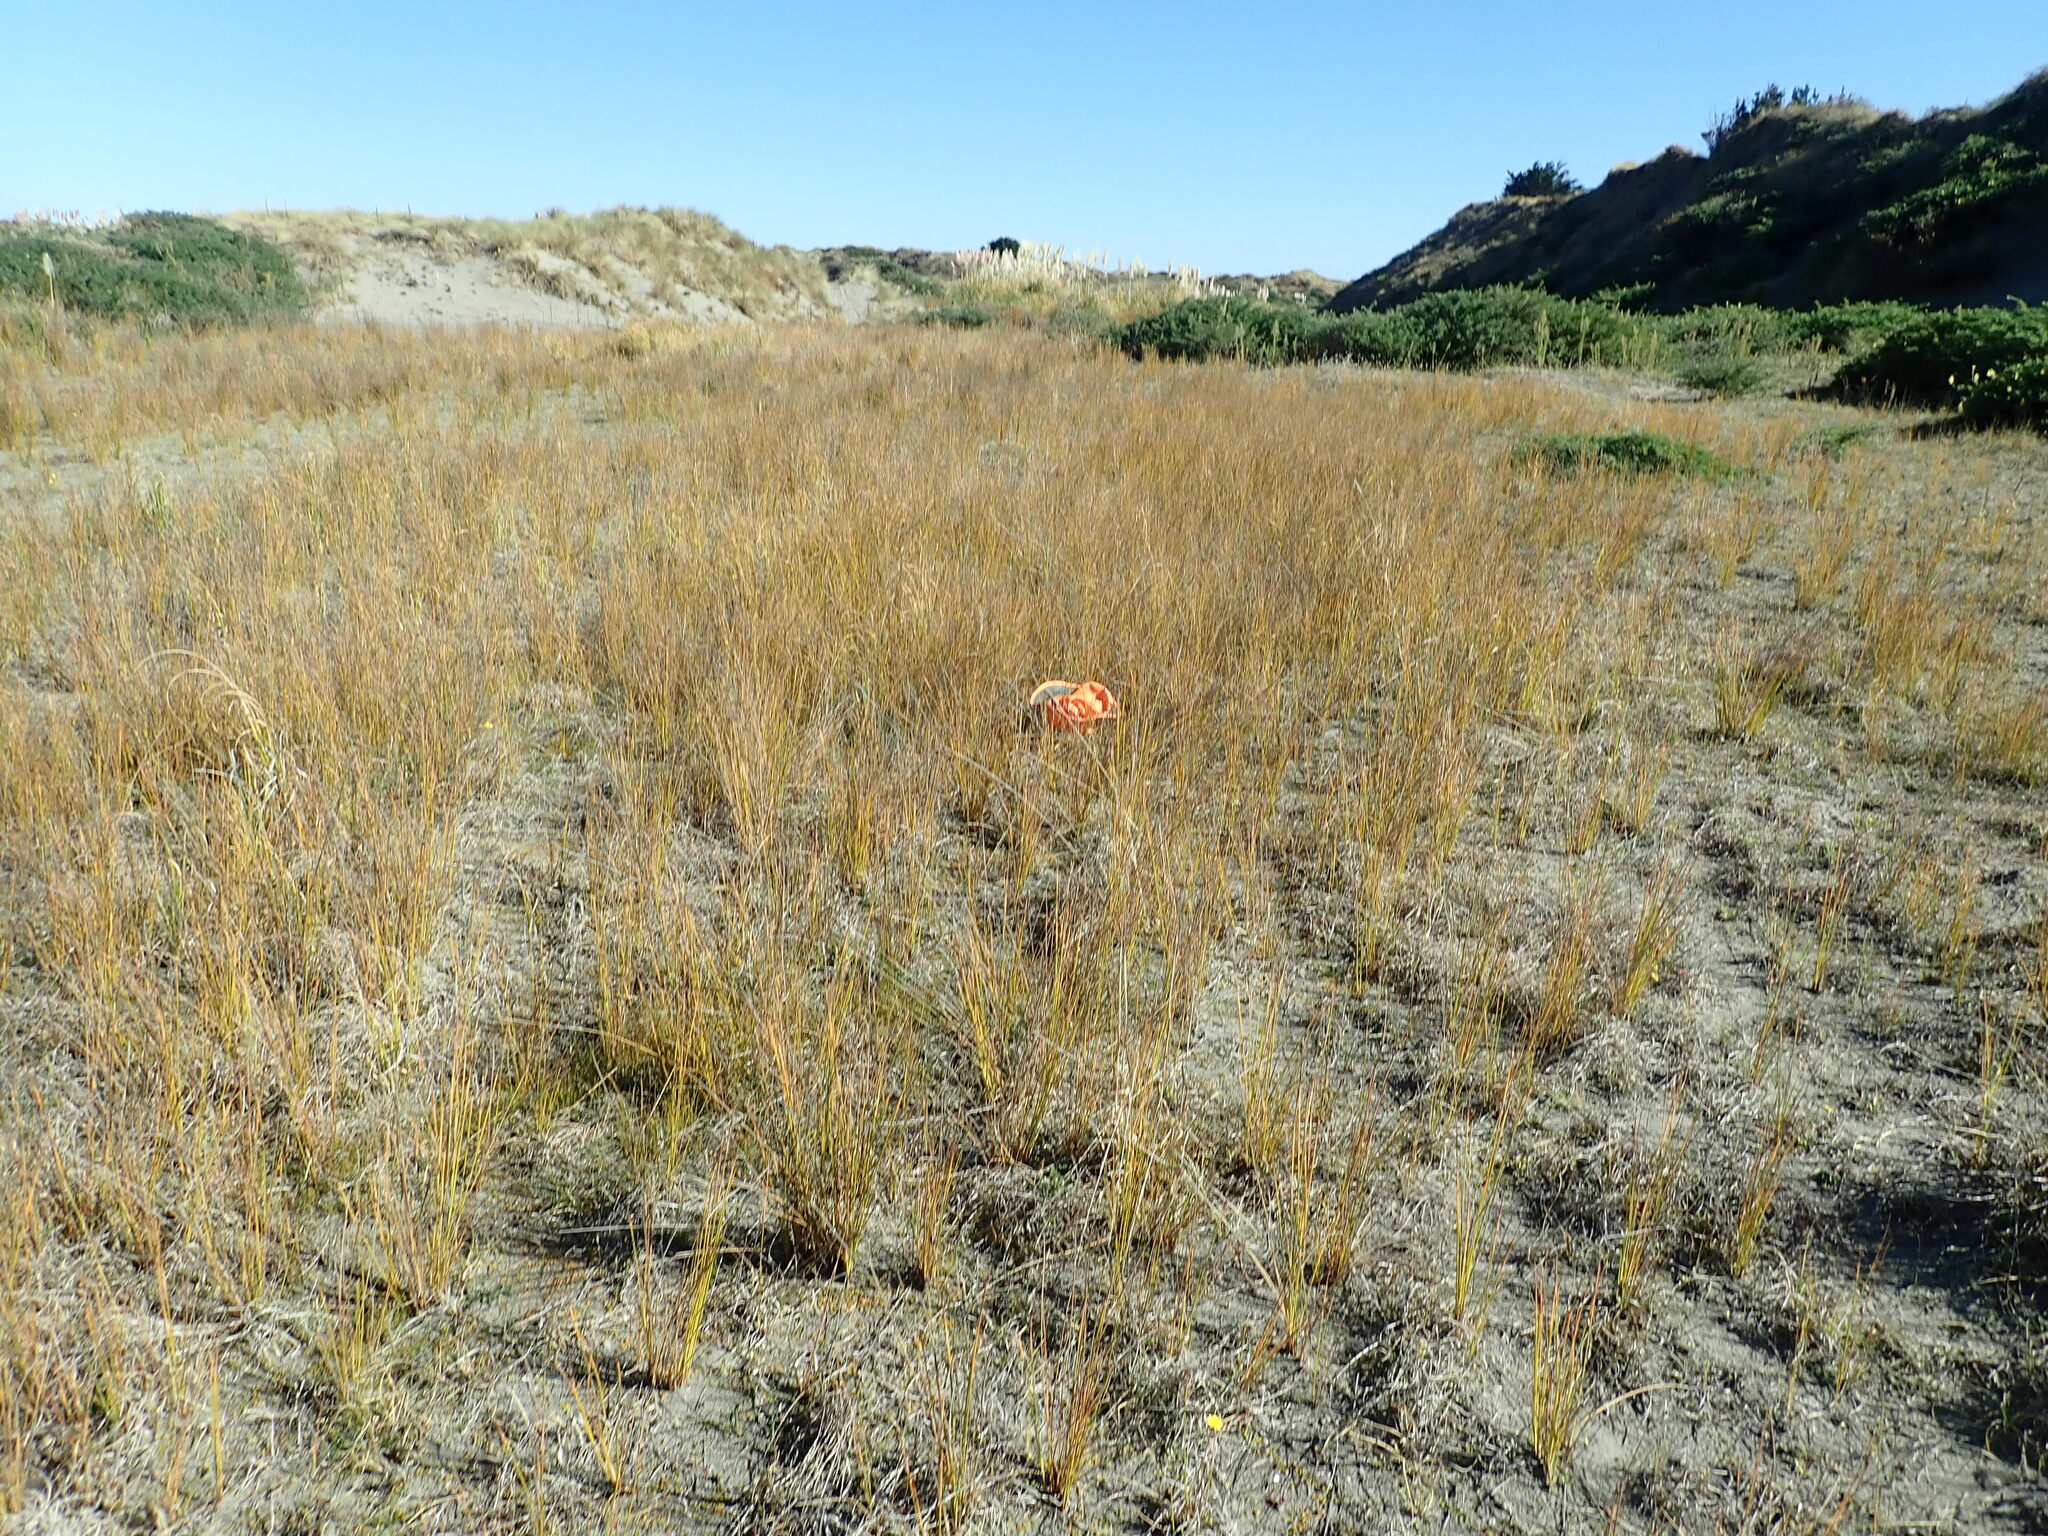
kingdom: Plantae
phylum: Tracheophyta
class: Magnoliopsida
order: Asterales
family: Campanulaceae
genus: Lobelia
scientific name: Lobelia anceps
